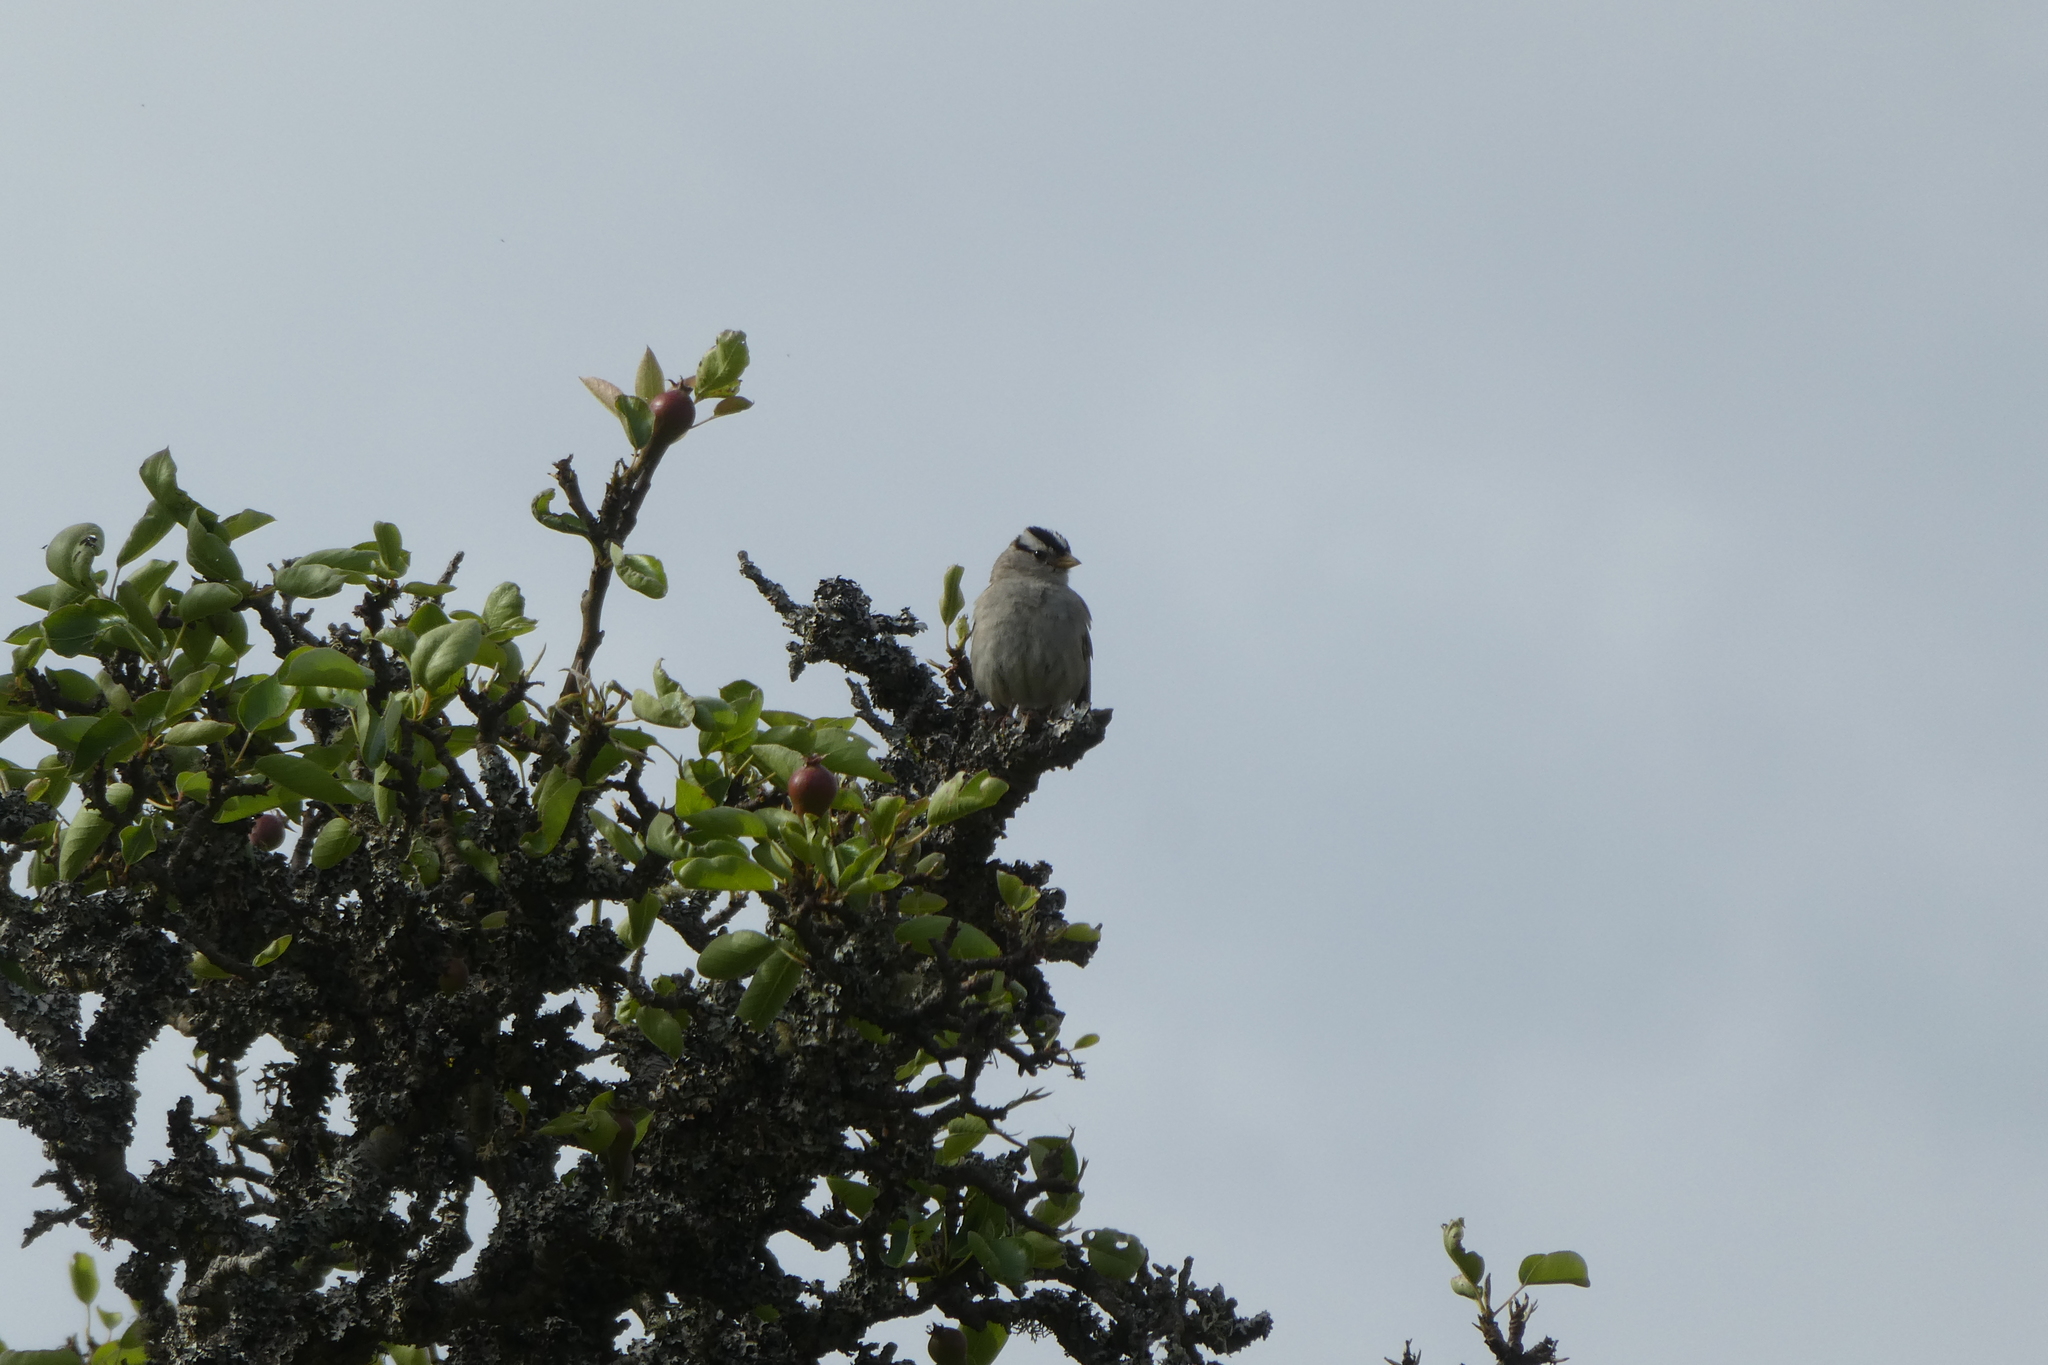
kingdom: Animalia
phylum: Chordata
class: Aves
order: Passeriformes
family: Passerellidae
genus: Zonotrichia
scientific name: Zonotrichia leucophrys
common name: White-crowned sparrow
